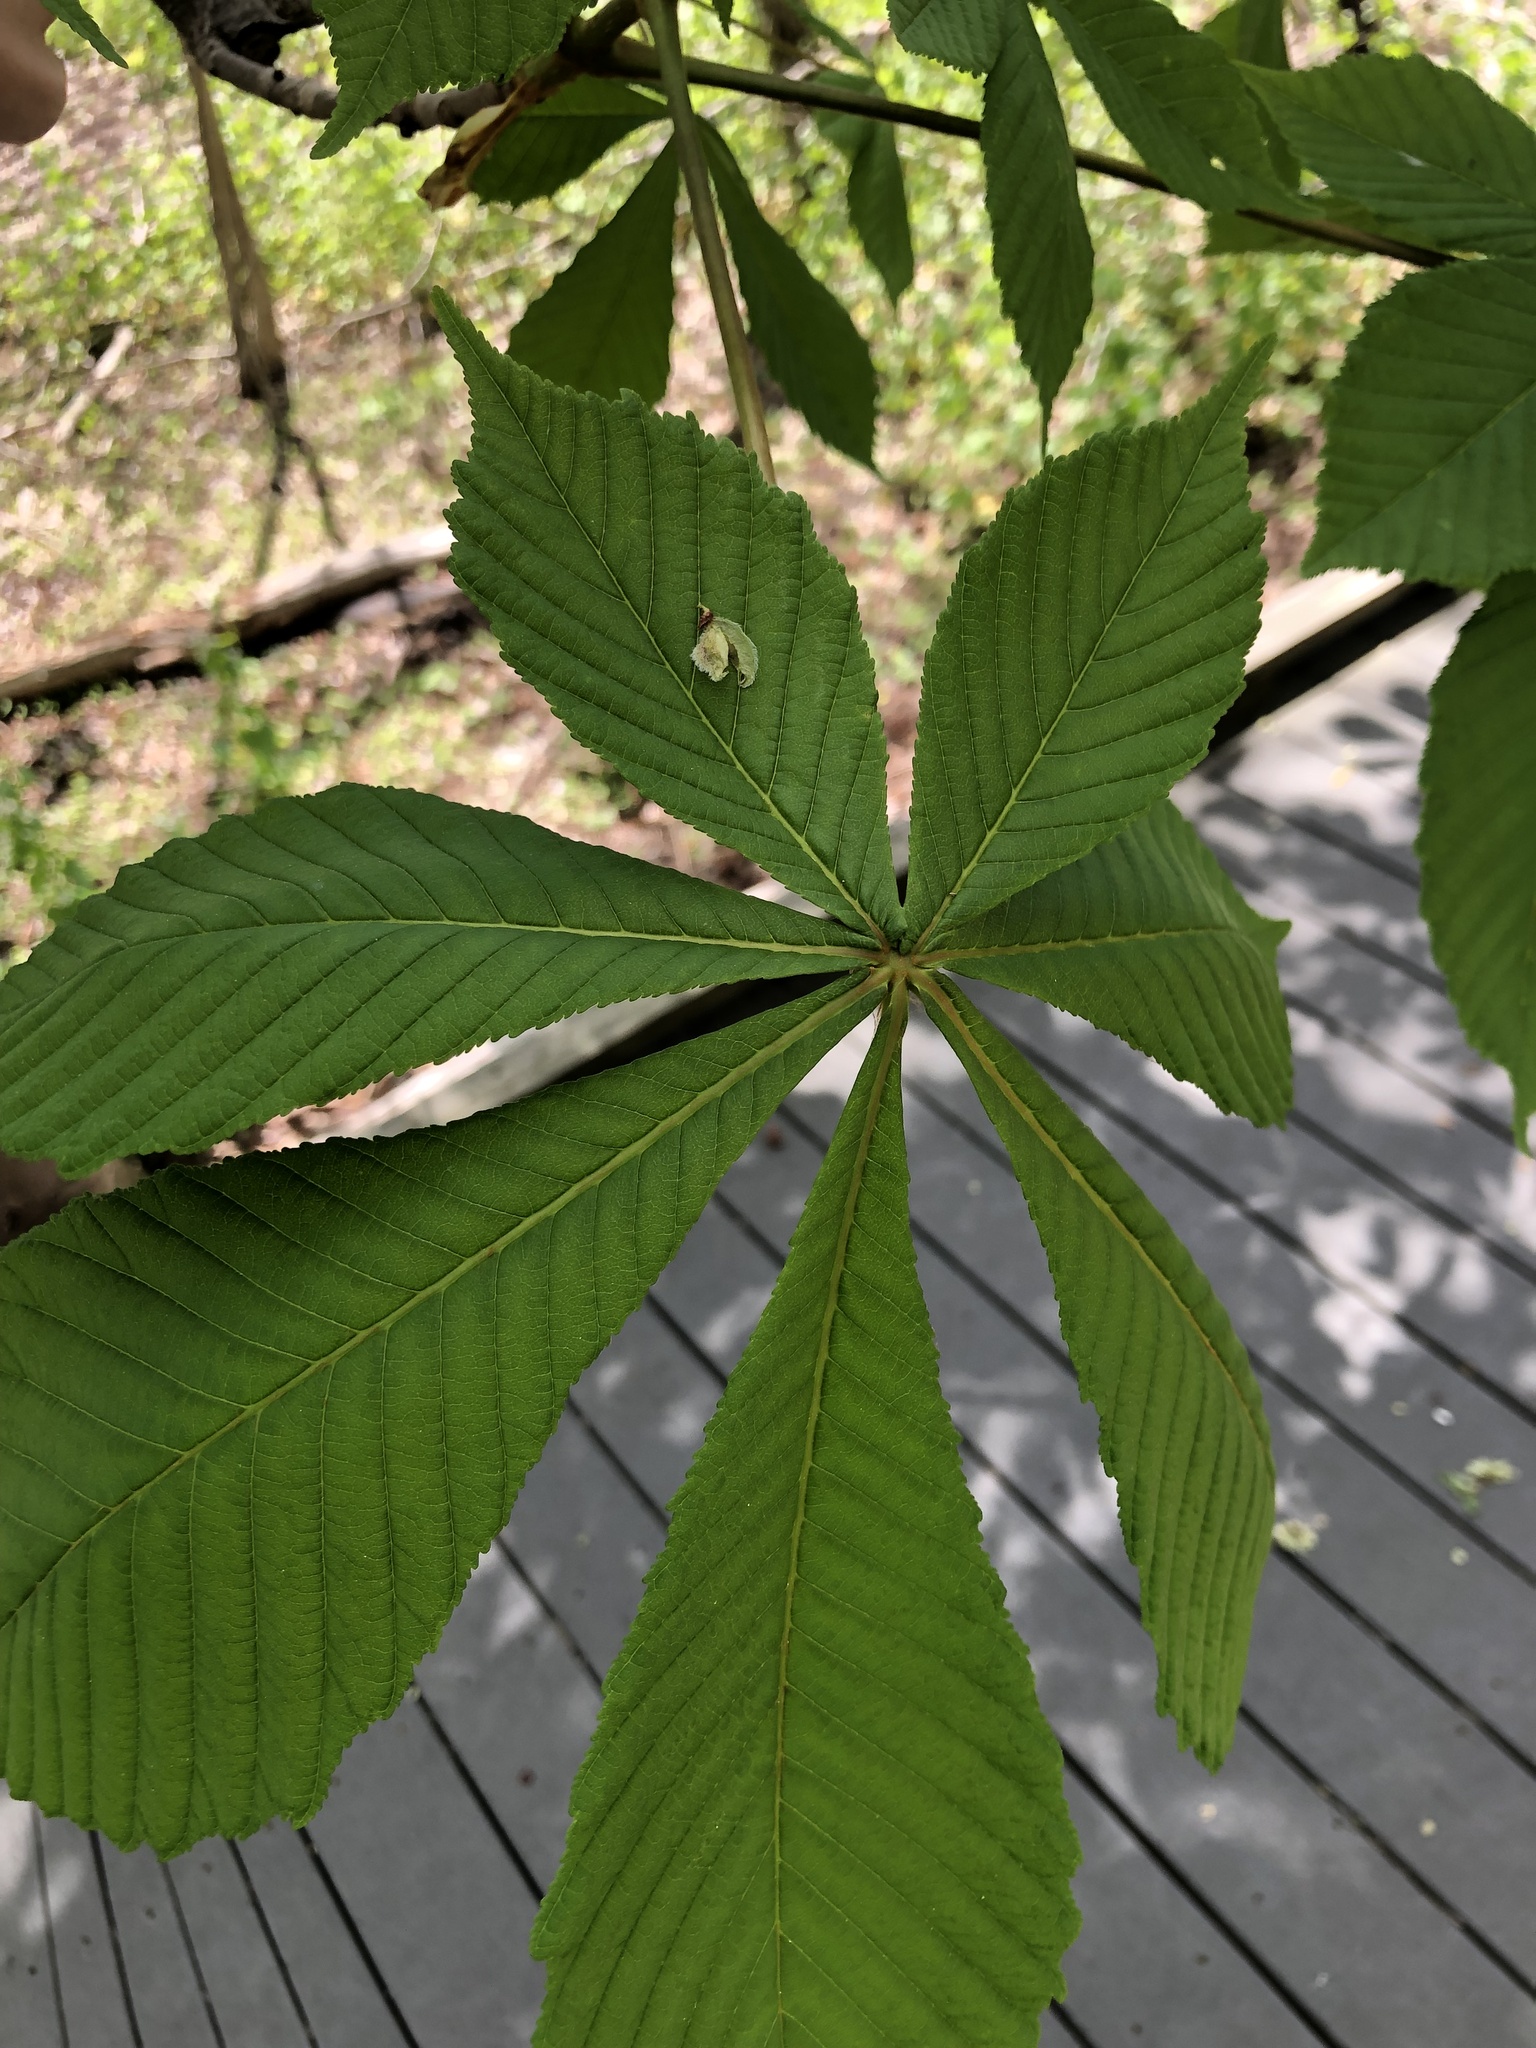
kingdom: Plantae
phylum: Tracheophyta
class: Magnoliopsida
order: Sapindales
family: Sapindaceae
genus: Aesculus
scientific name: Aesculus hippocastanum
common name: Horse-chestnut
